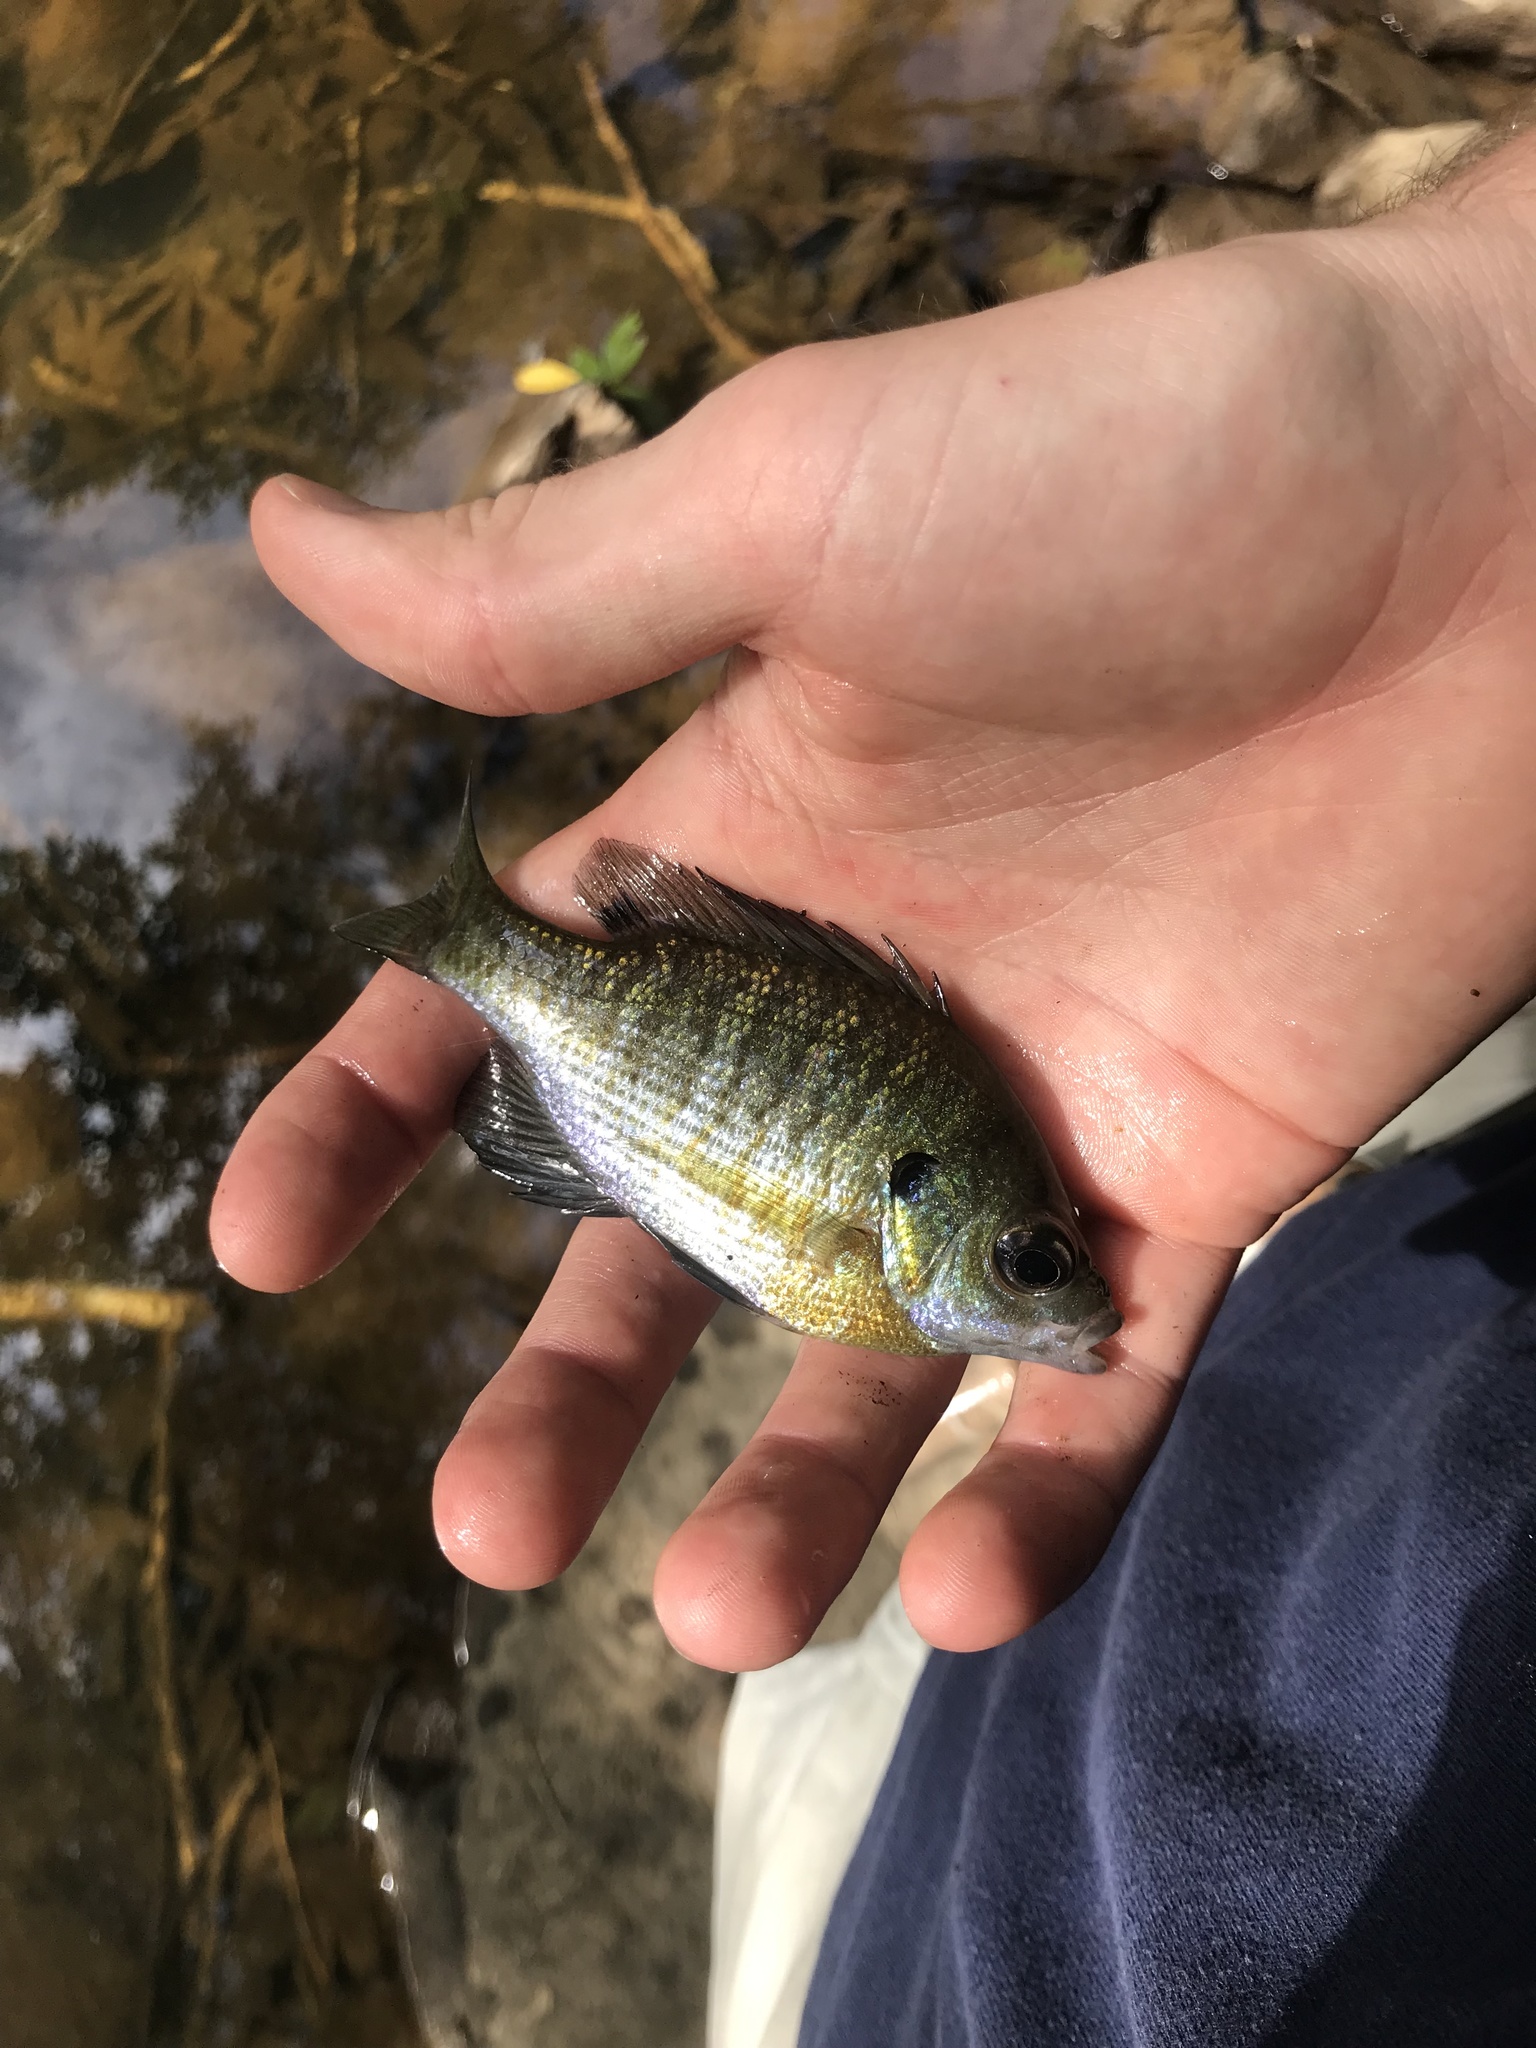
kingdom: Animalia
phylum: Chordata
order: Perciformes
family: Centrarchidae
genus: Lepomis
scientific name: Lepomis macrochirus
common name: Bluegill
